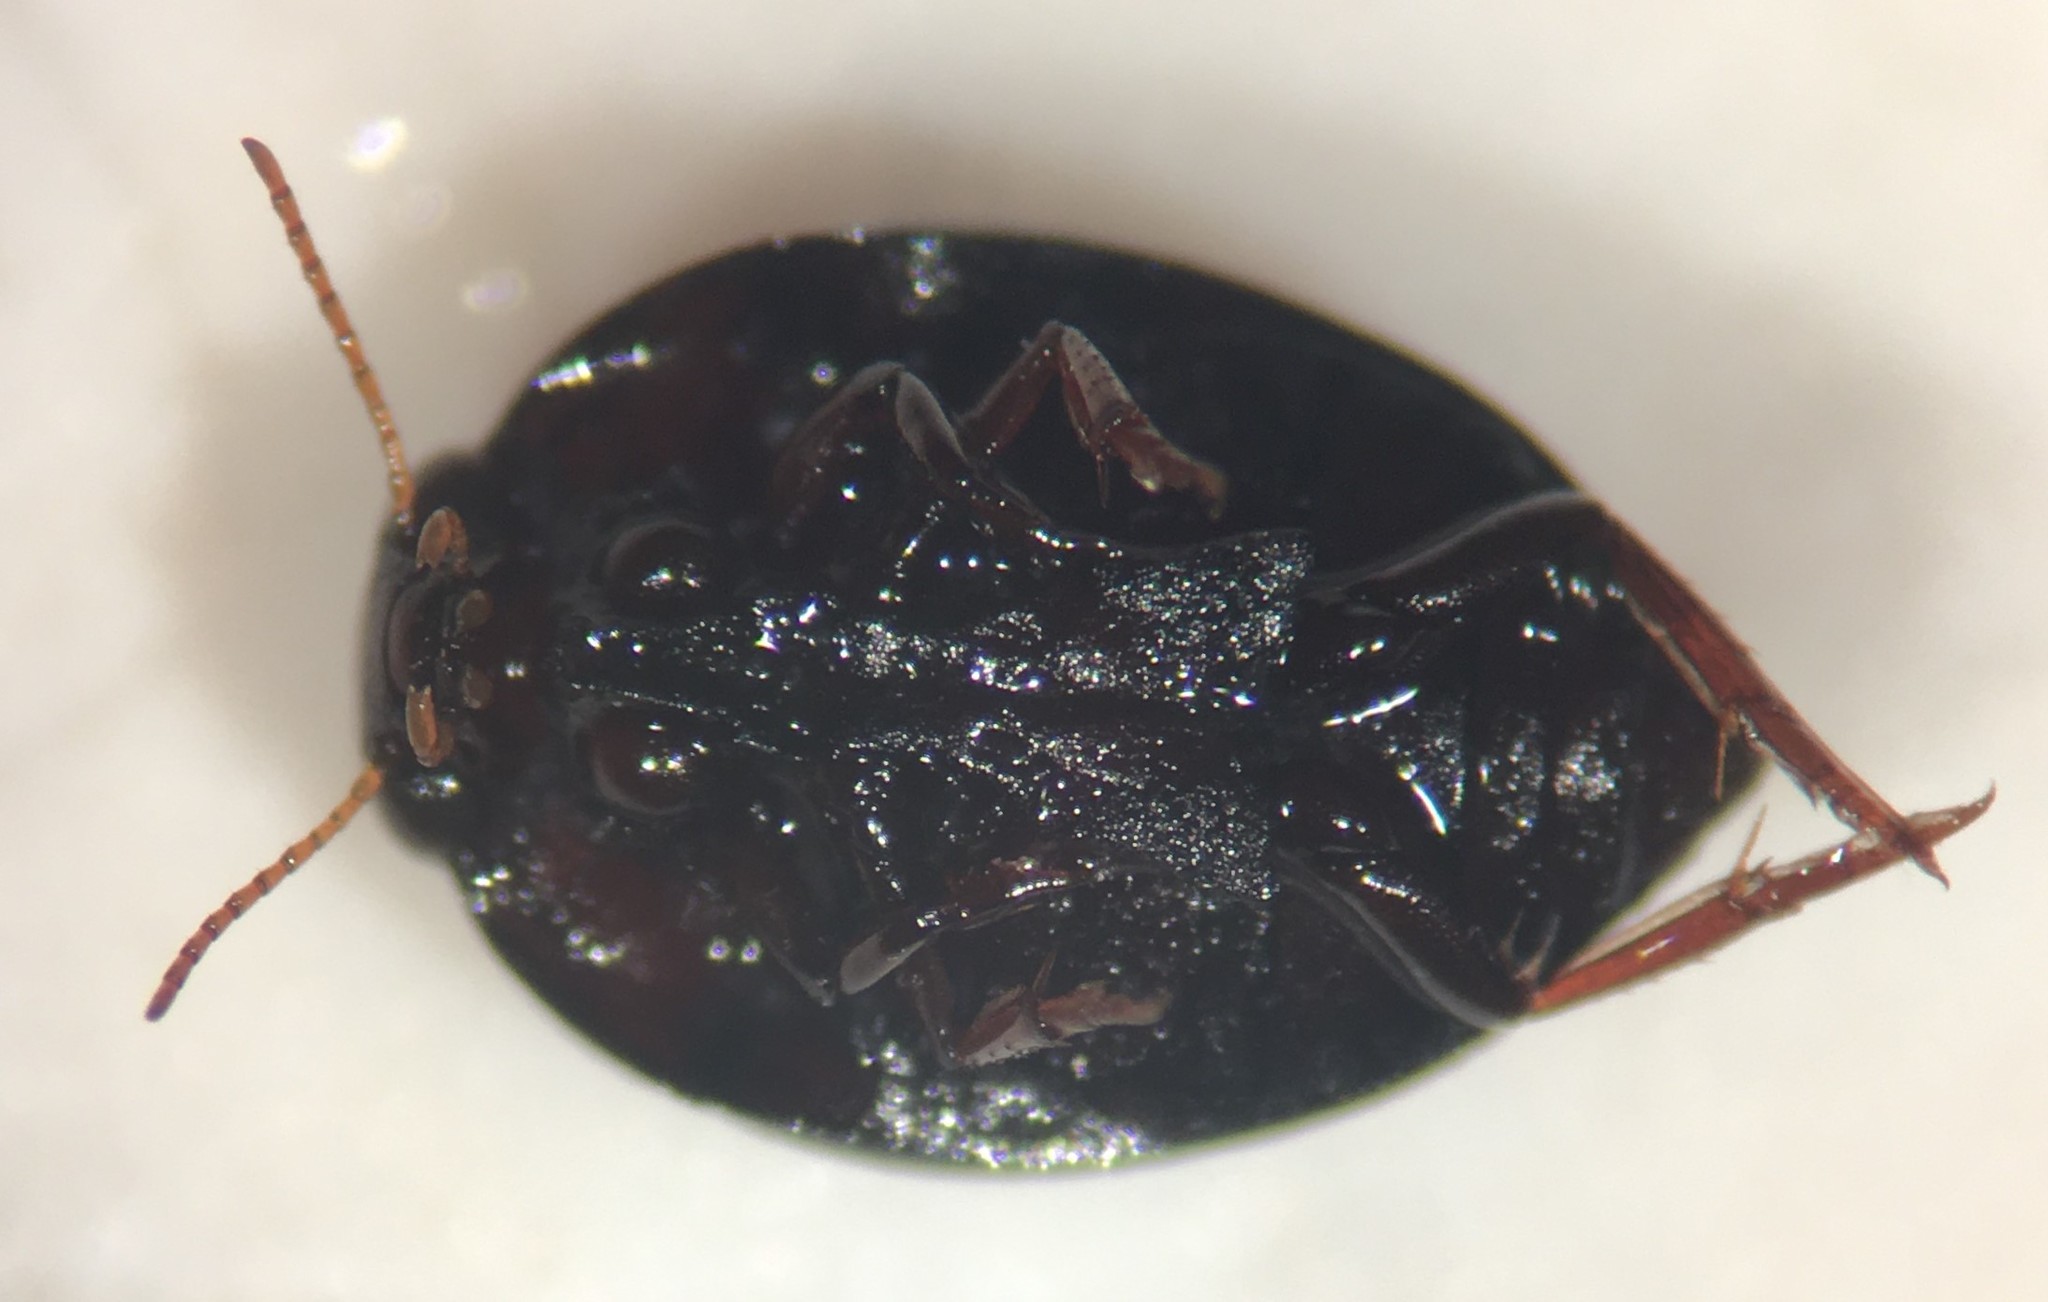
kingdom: Animalia
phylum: Arthropoda
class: Insecta
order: Coleoptera
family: Noteridae
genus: Suphis
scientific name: Suphis inflatus
